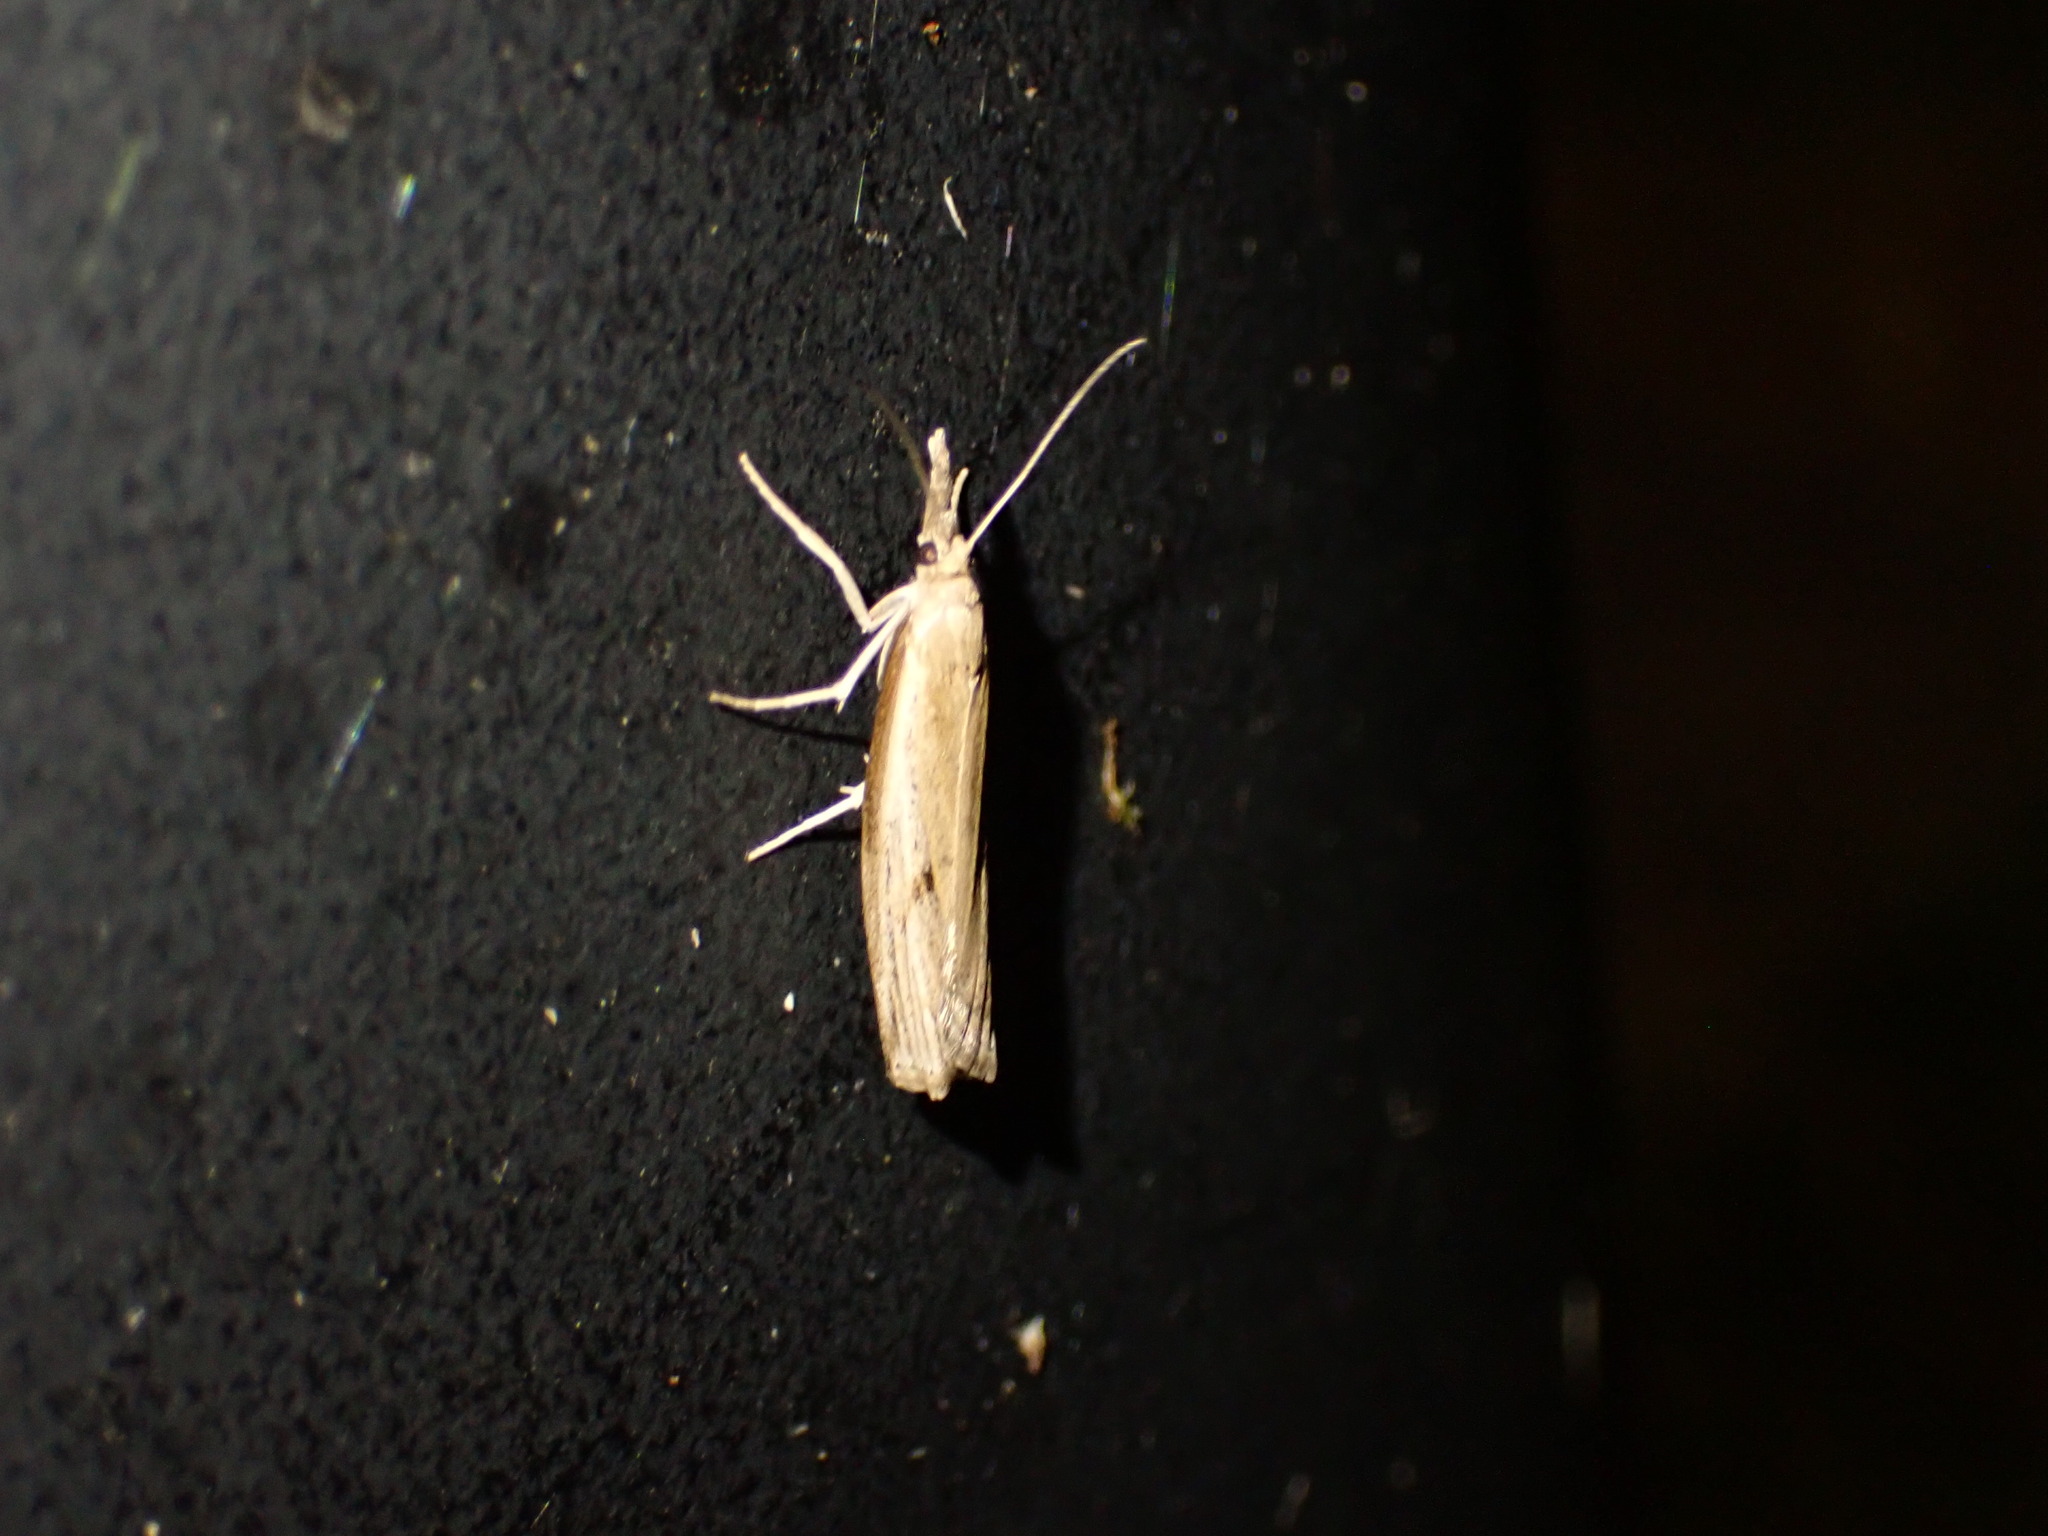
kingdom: Animalia
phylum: Arthropoda
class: Insecta
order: Lepidoptera
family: Crambidae
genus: Fissicrambus
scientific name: Fissicrambus mutabilis
